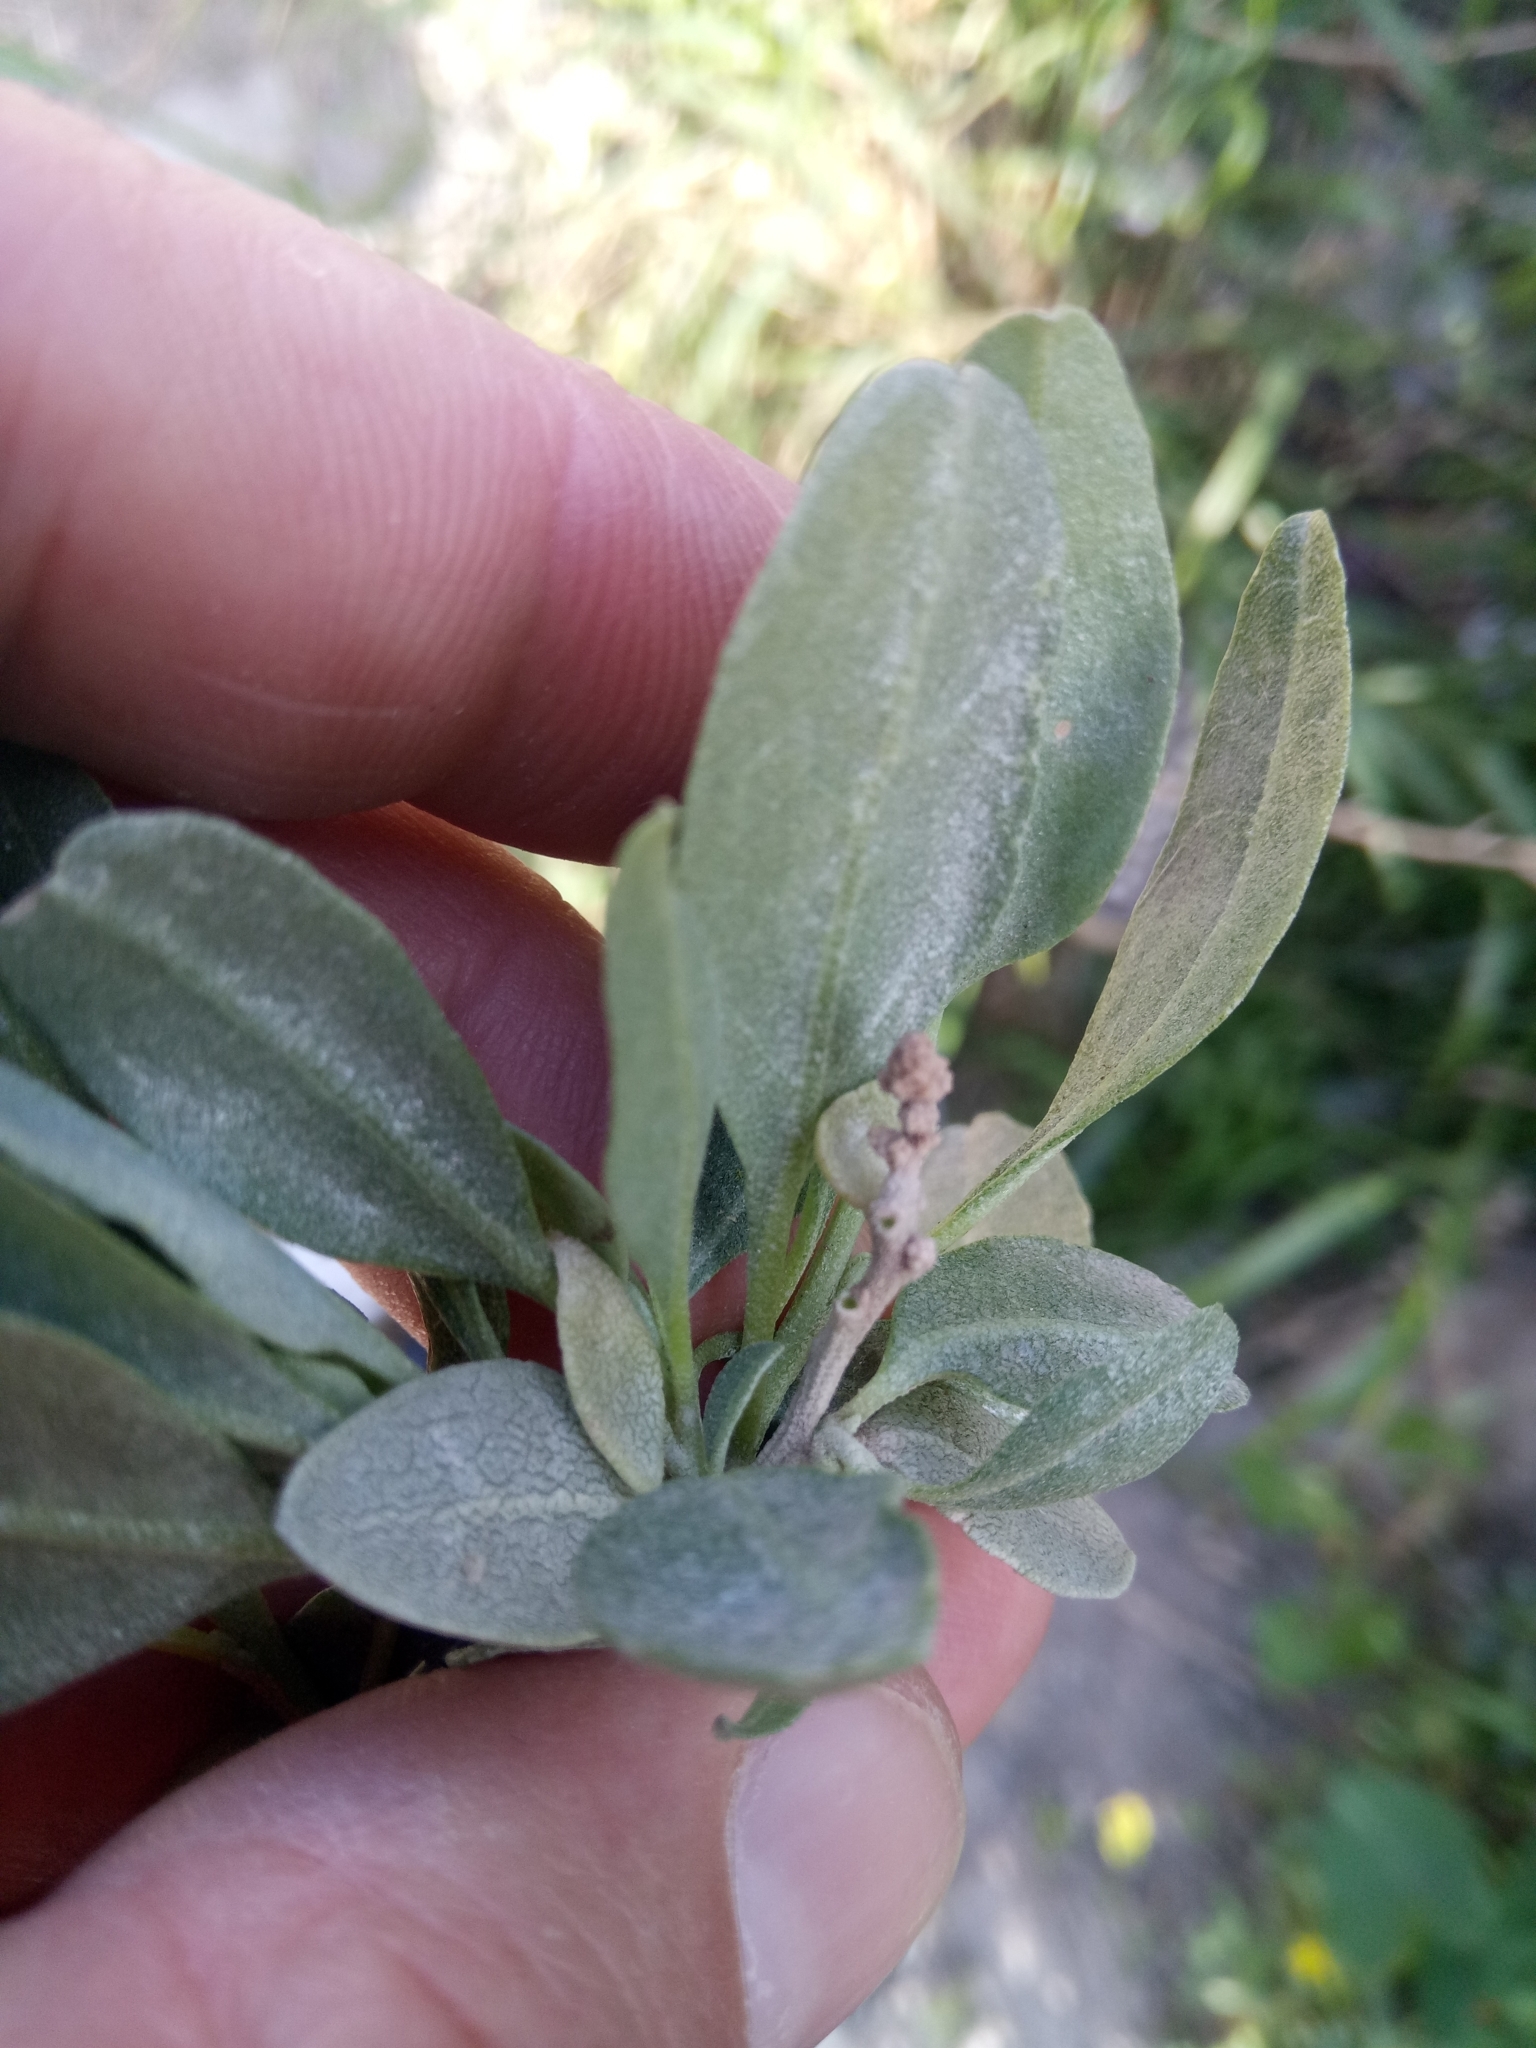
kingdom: Plantae
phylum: Tracheophyta
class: Magnoliopsida
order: Caryophyllales
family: Amaranthaceae
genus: Atriplex
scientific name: Atriplex halimus
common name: Shrubby orache
